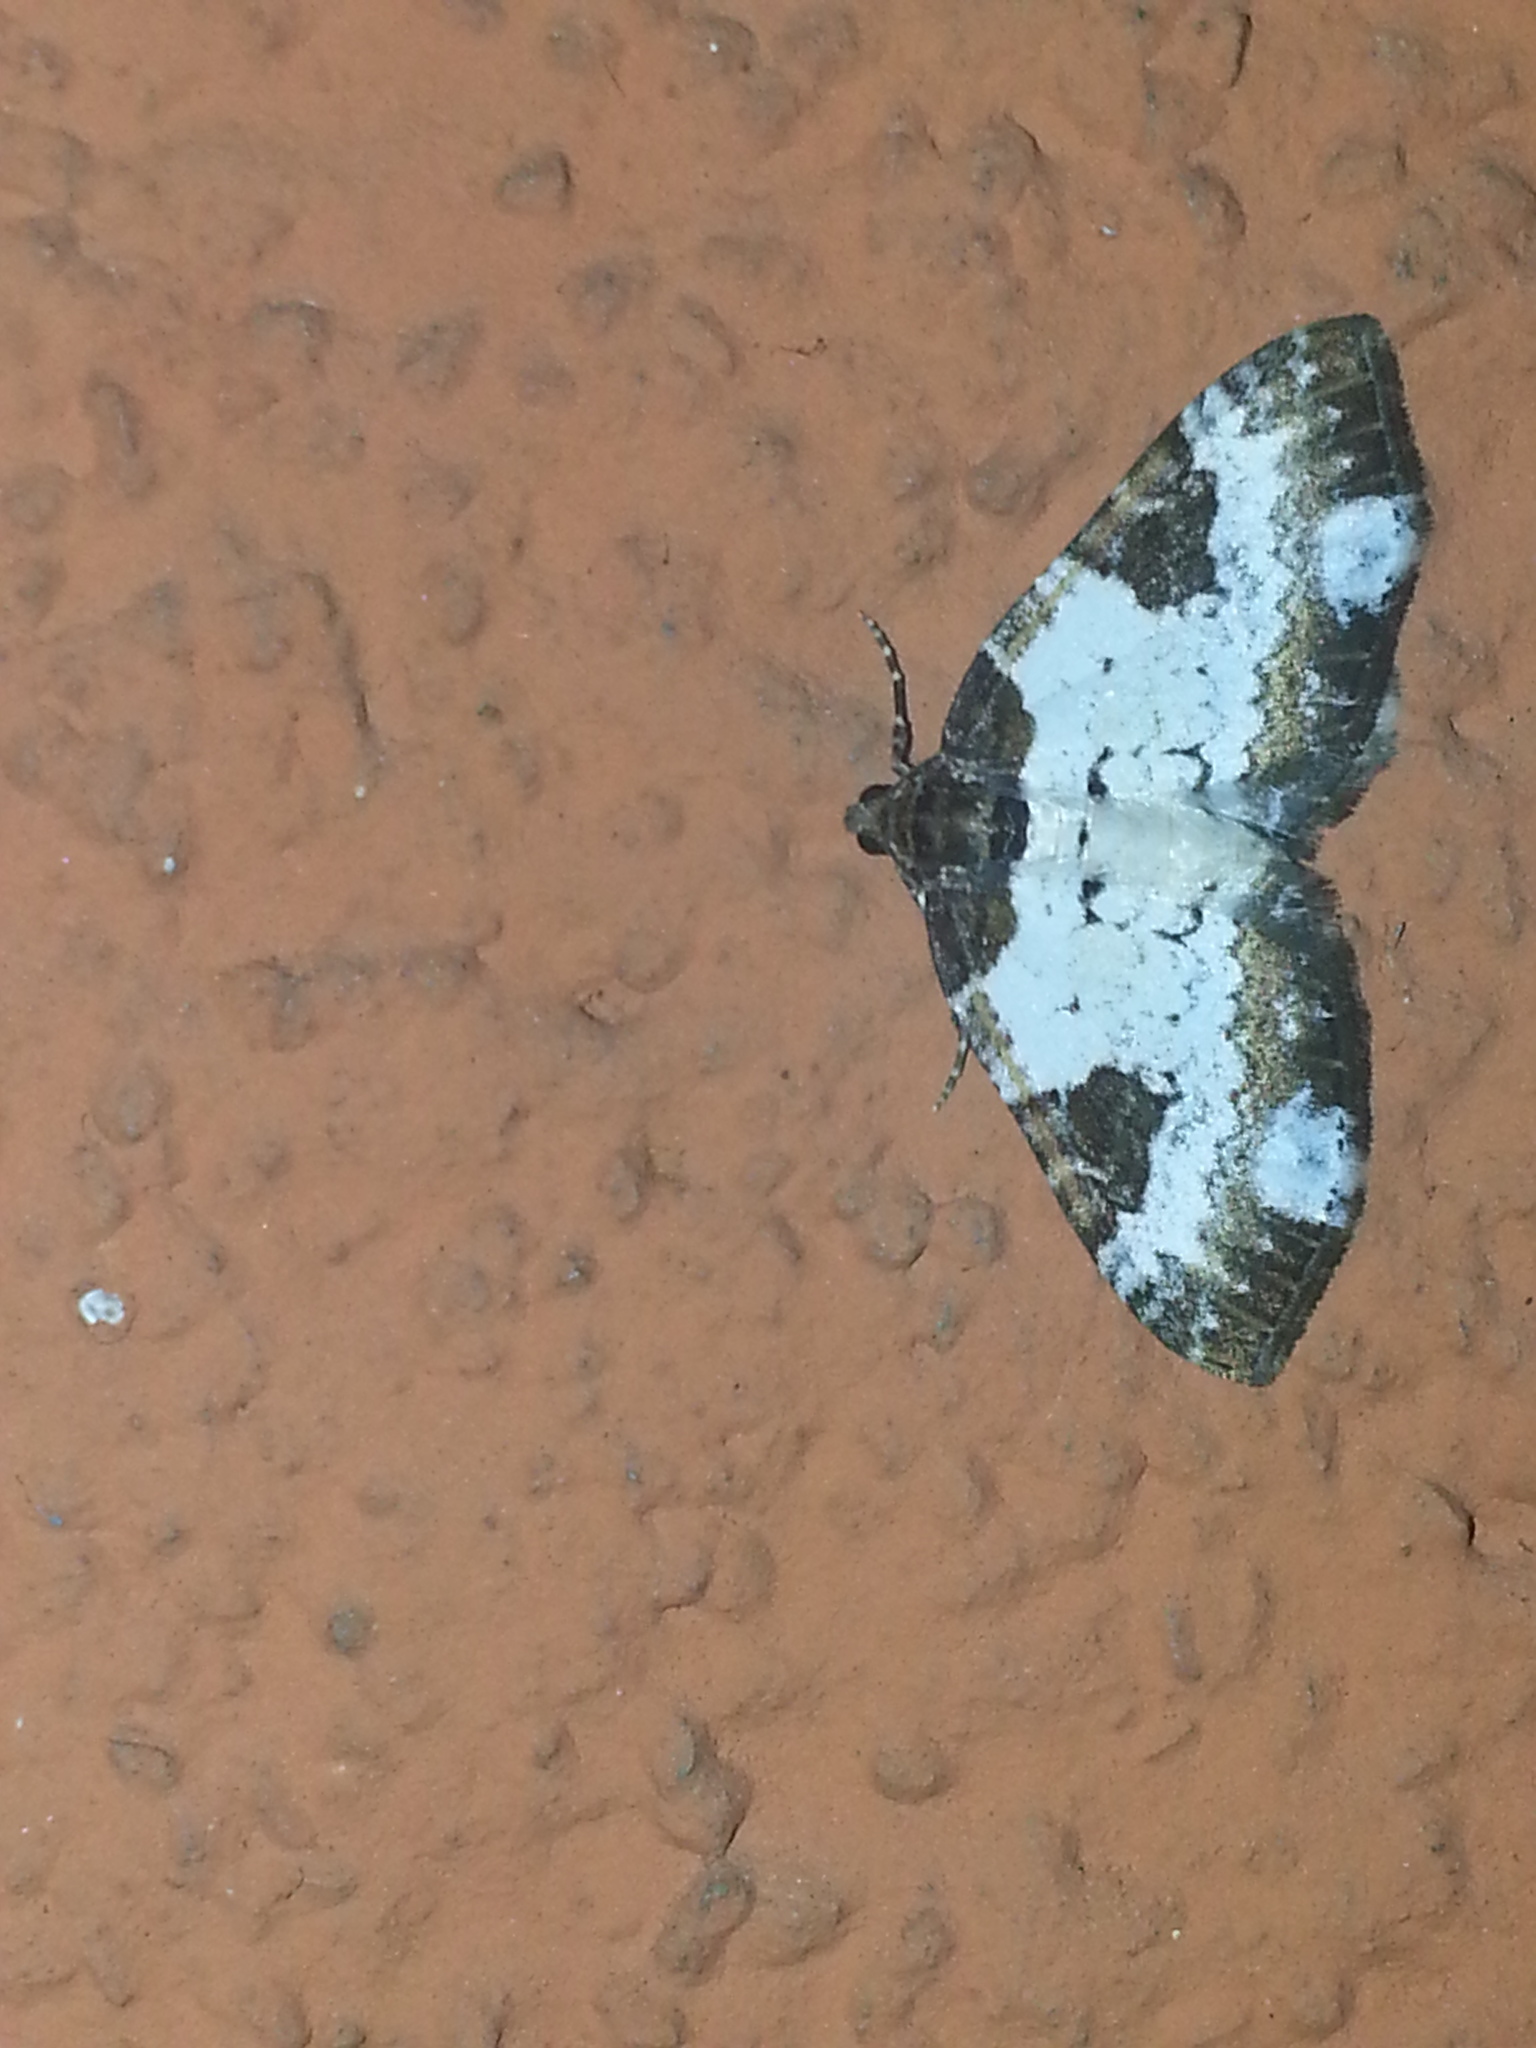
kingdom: Animalia
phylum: Arthropoda
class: Insecta
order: Lepidoptera
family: Geometridae
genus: Melanthia
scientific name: Melanthia procellata
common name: Pretty chalk carpet
